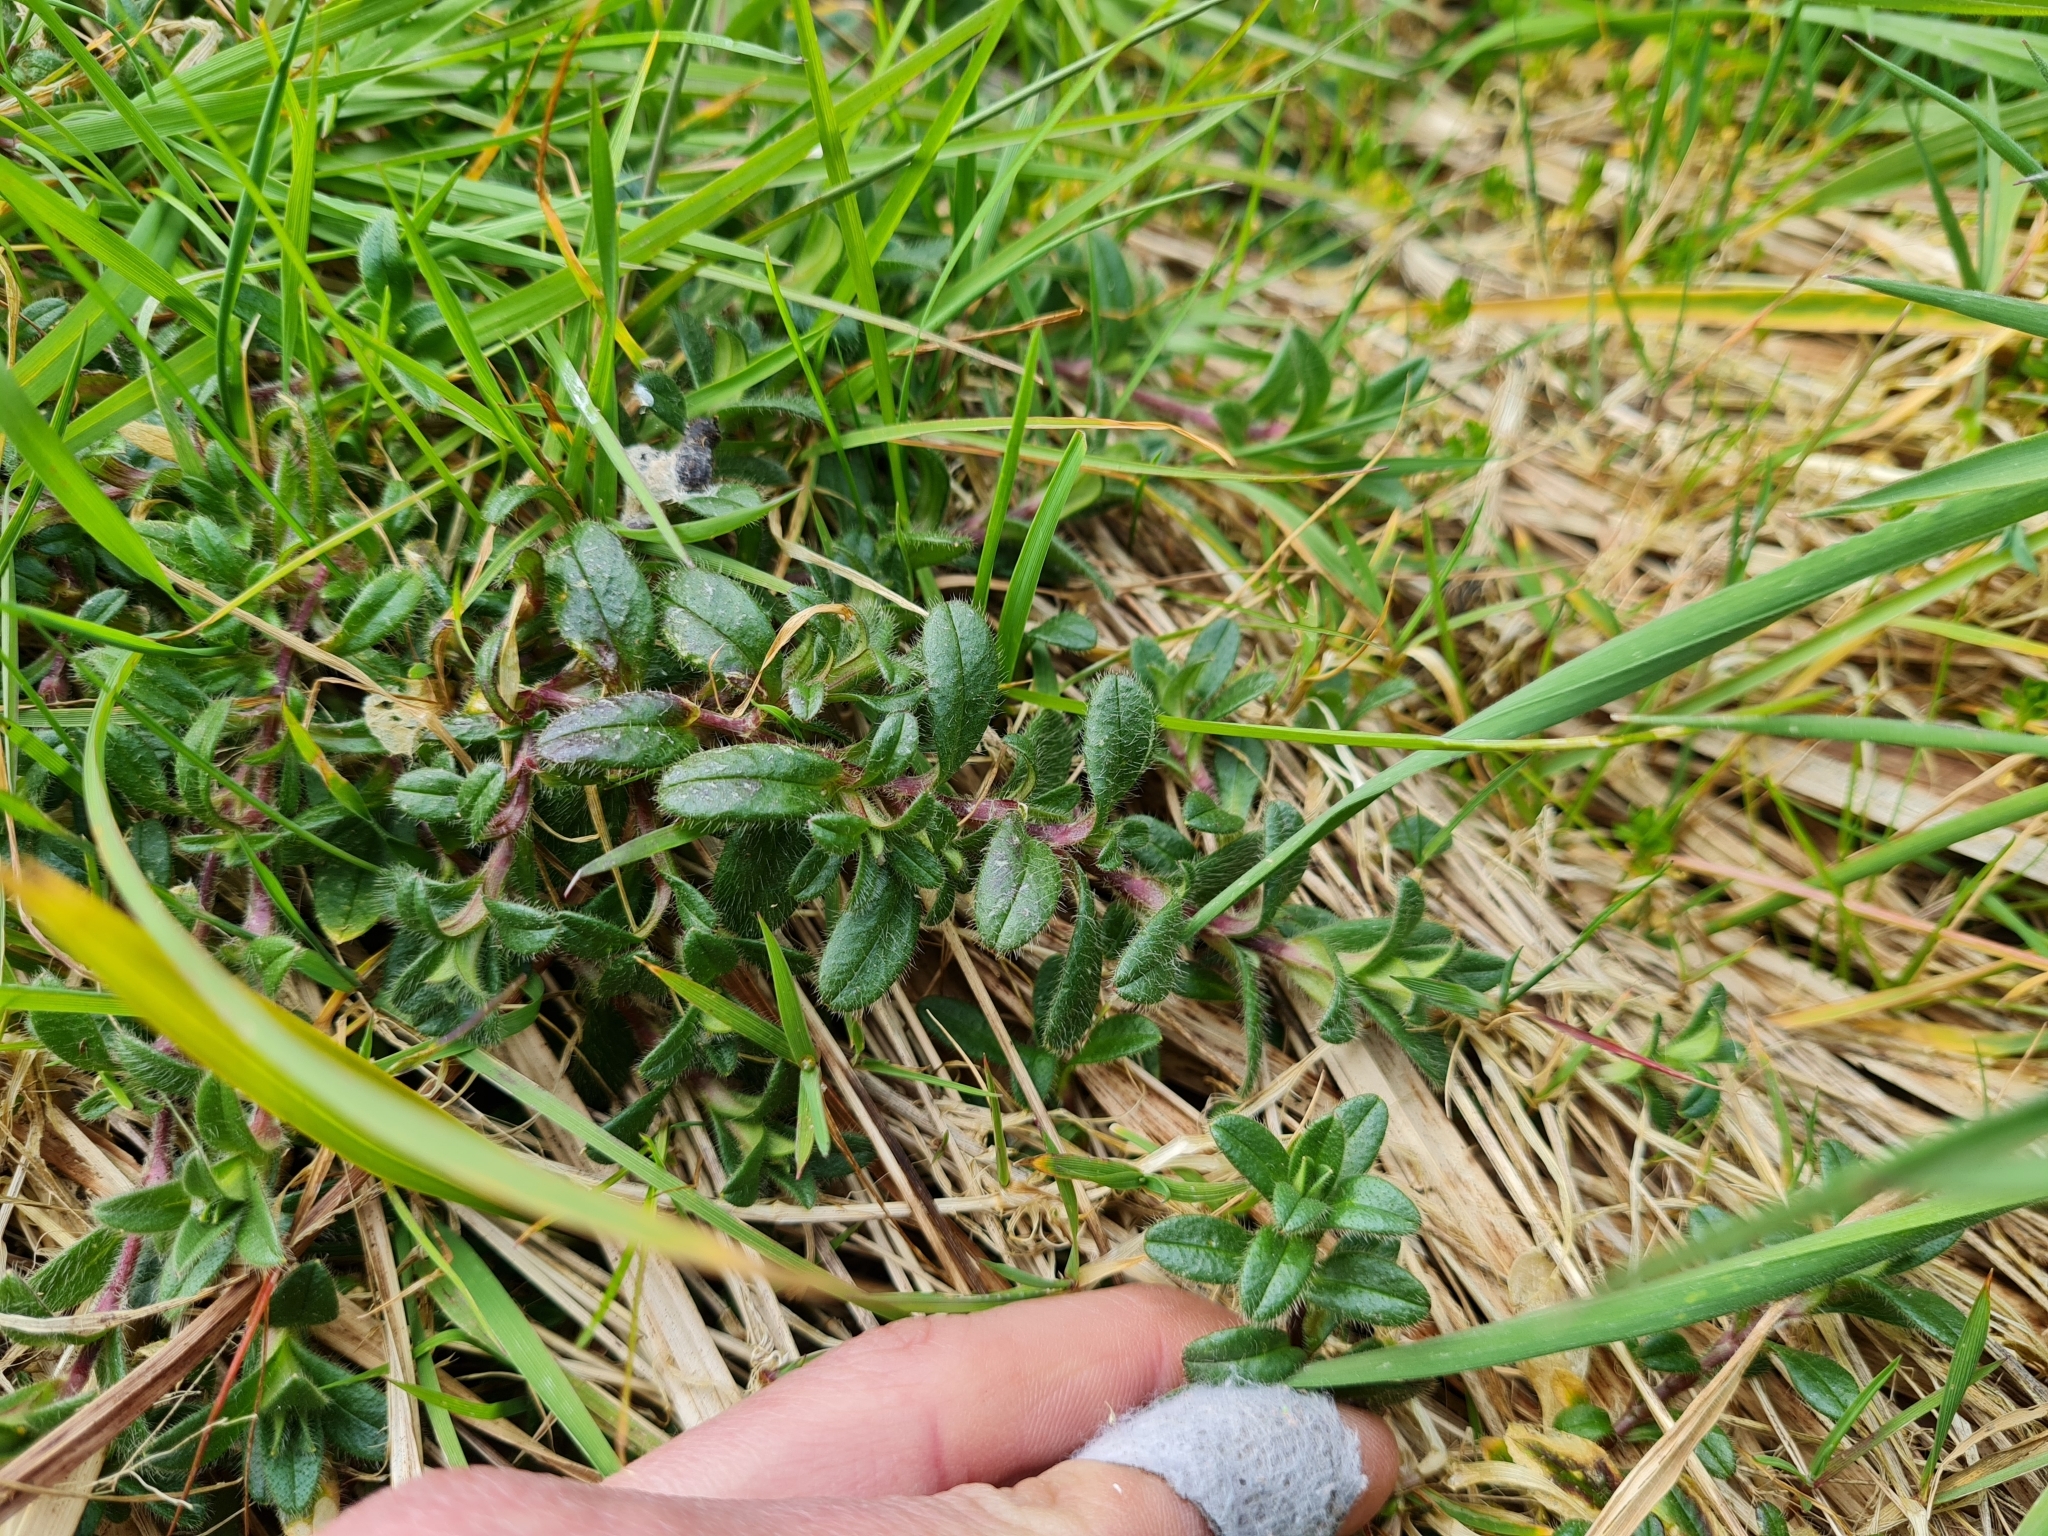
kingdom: Plantae
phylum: Tracheophyta
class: Magnoliopsida
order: Caryophyllales
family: Caryophyllaceae
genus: Cerastium
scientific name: Cerastium fontanum
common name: Common mouse-ear
